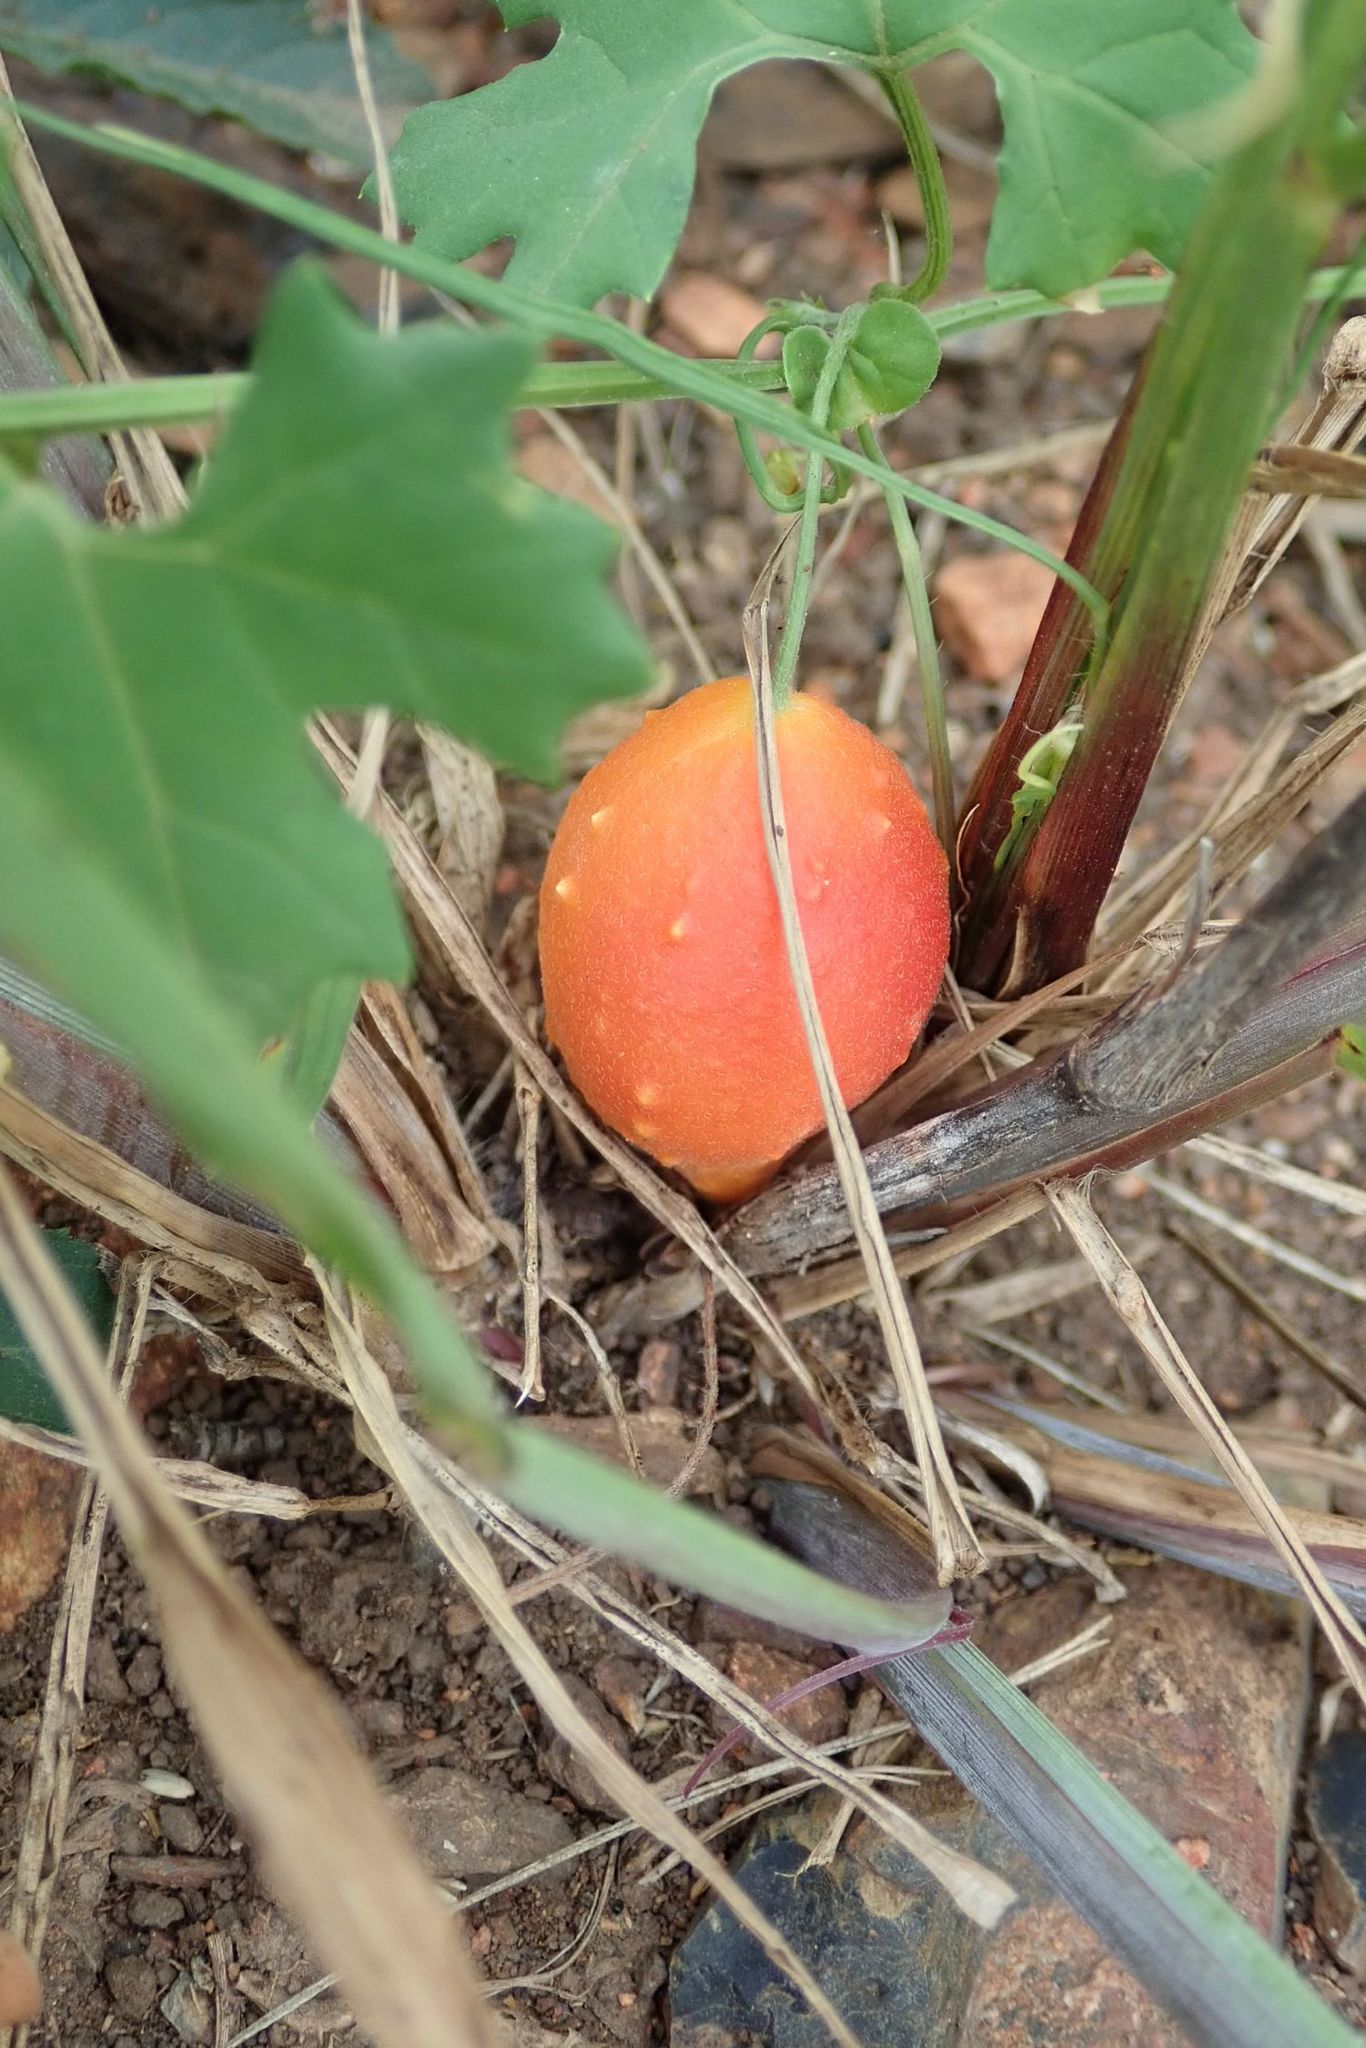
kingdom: Plantae
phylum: Tracheophyta
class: Magnoliopsida
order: Cucurbitales
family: Cucurbitaceae
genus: Momordica
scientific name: Momordica balsamina
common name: Southern balsampear
